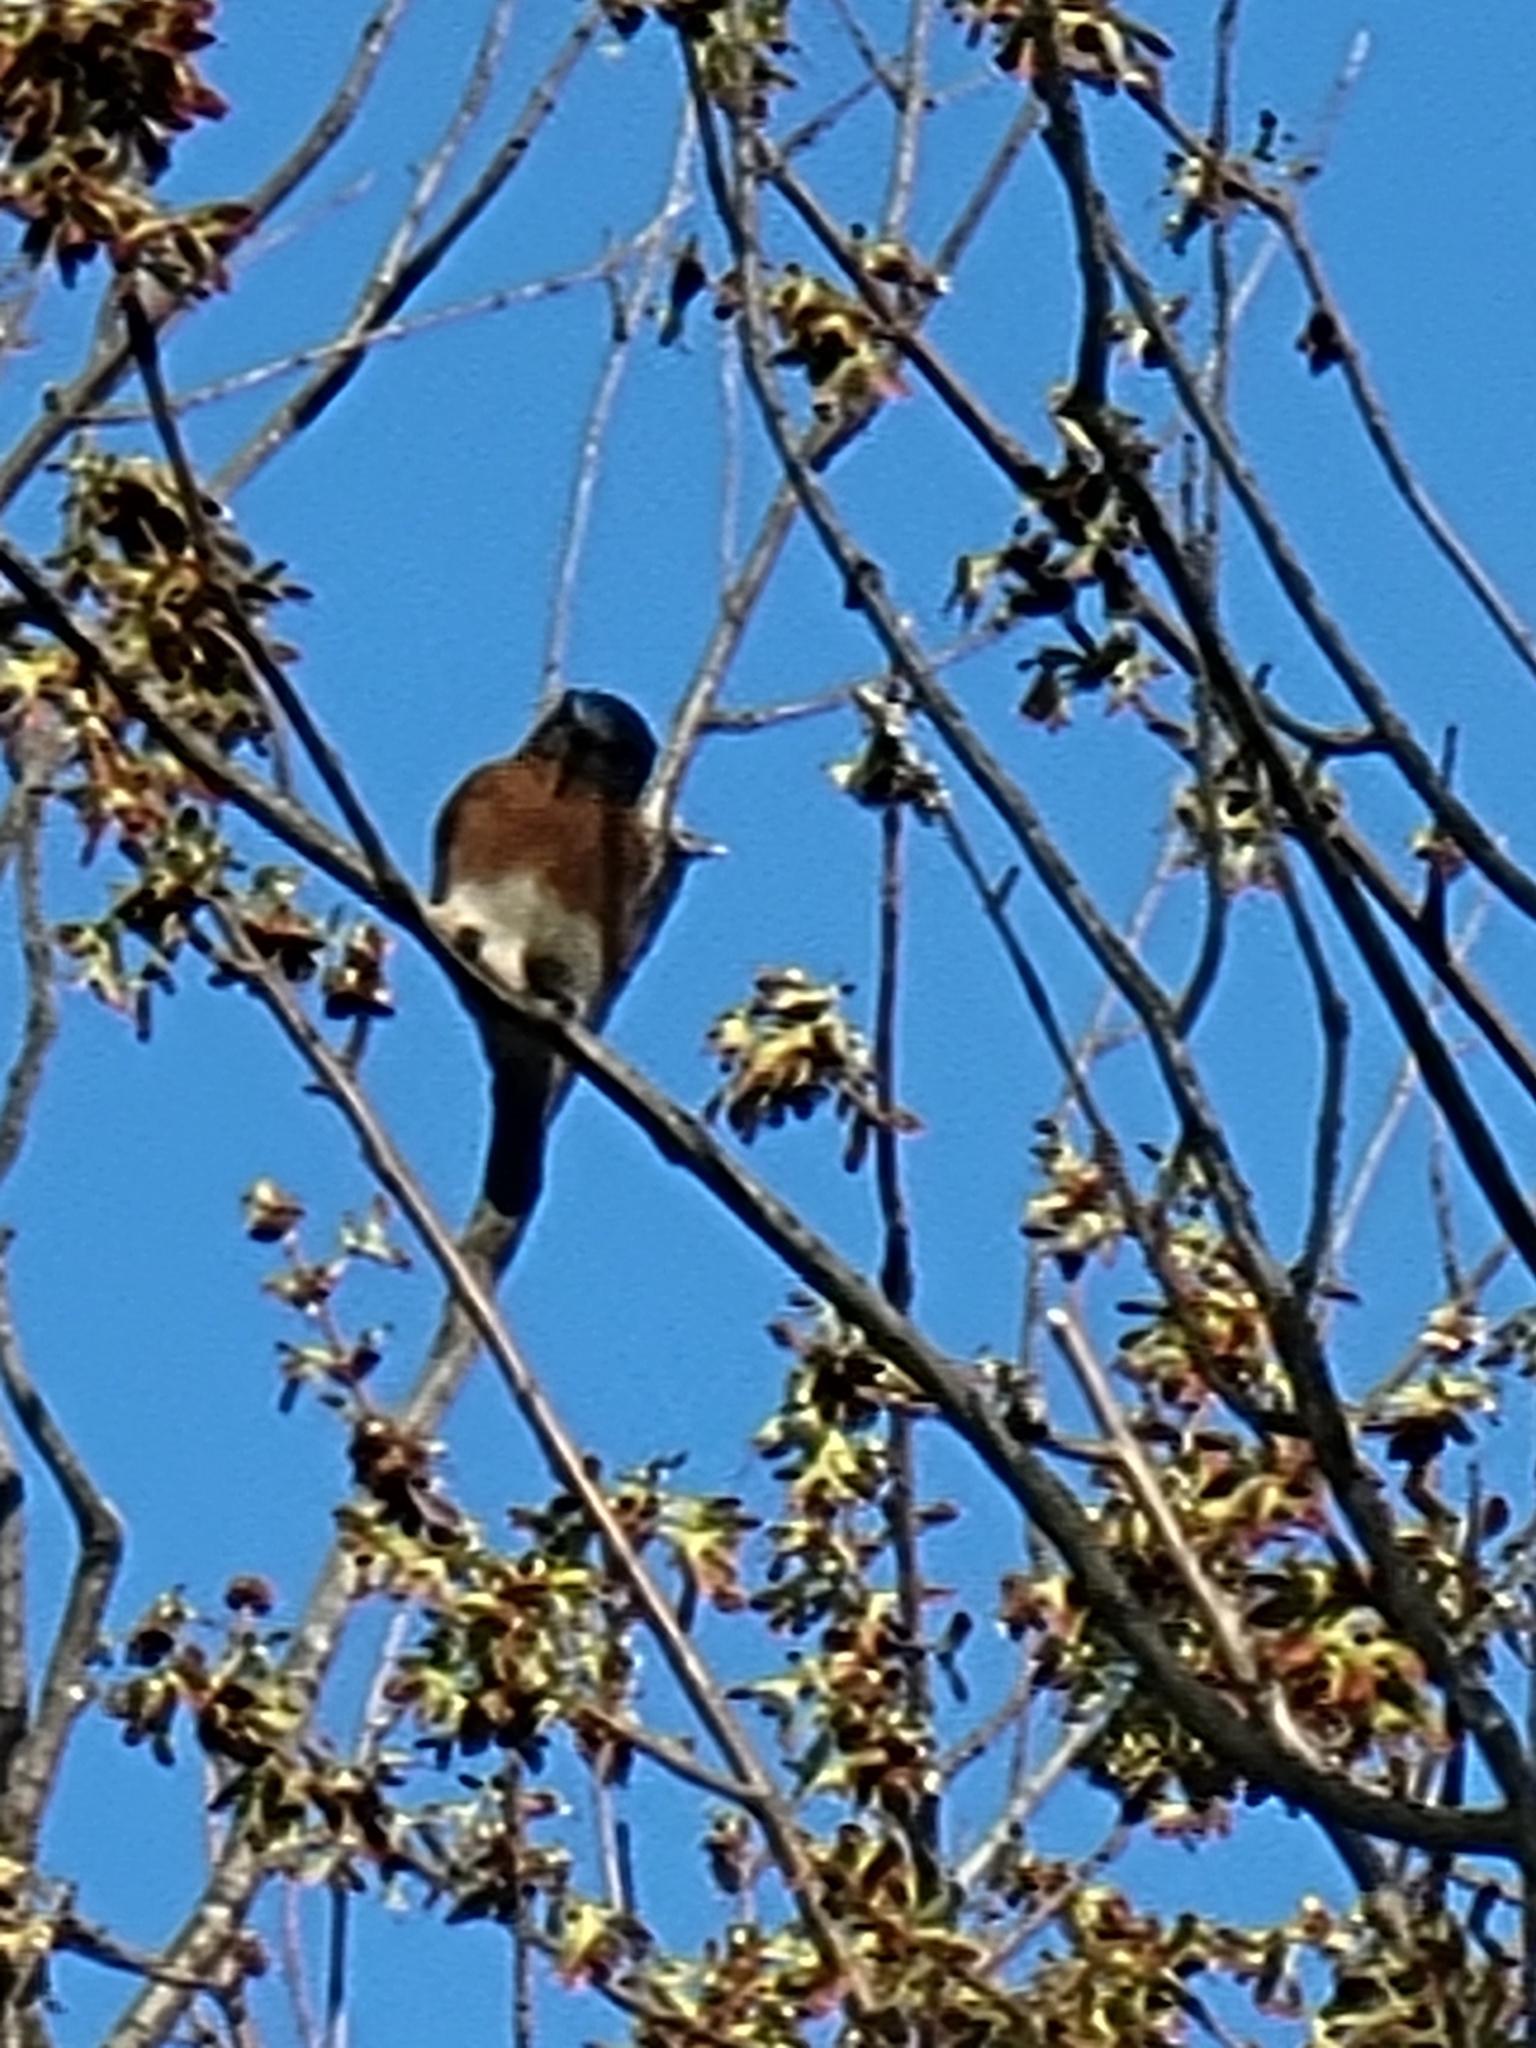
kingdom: Animalia
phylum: Chordata
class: Aves
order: Passeriformes
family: Turdidae
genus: Sialia
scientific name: Sialia sialis
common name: Eastern bluebird
